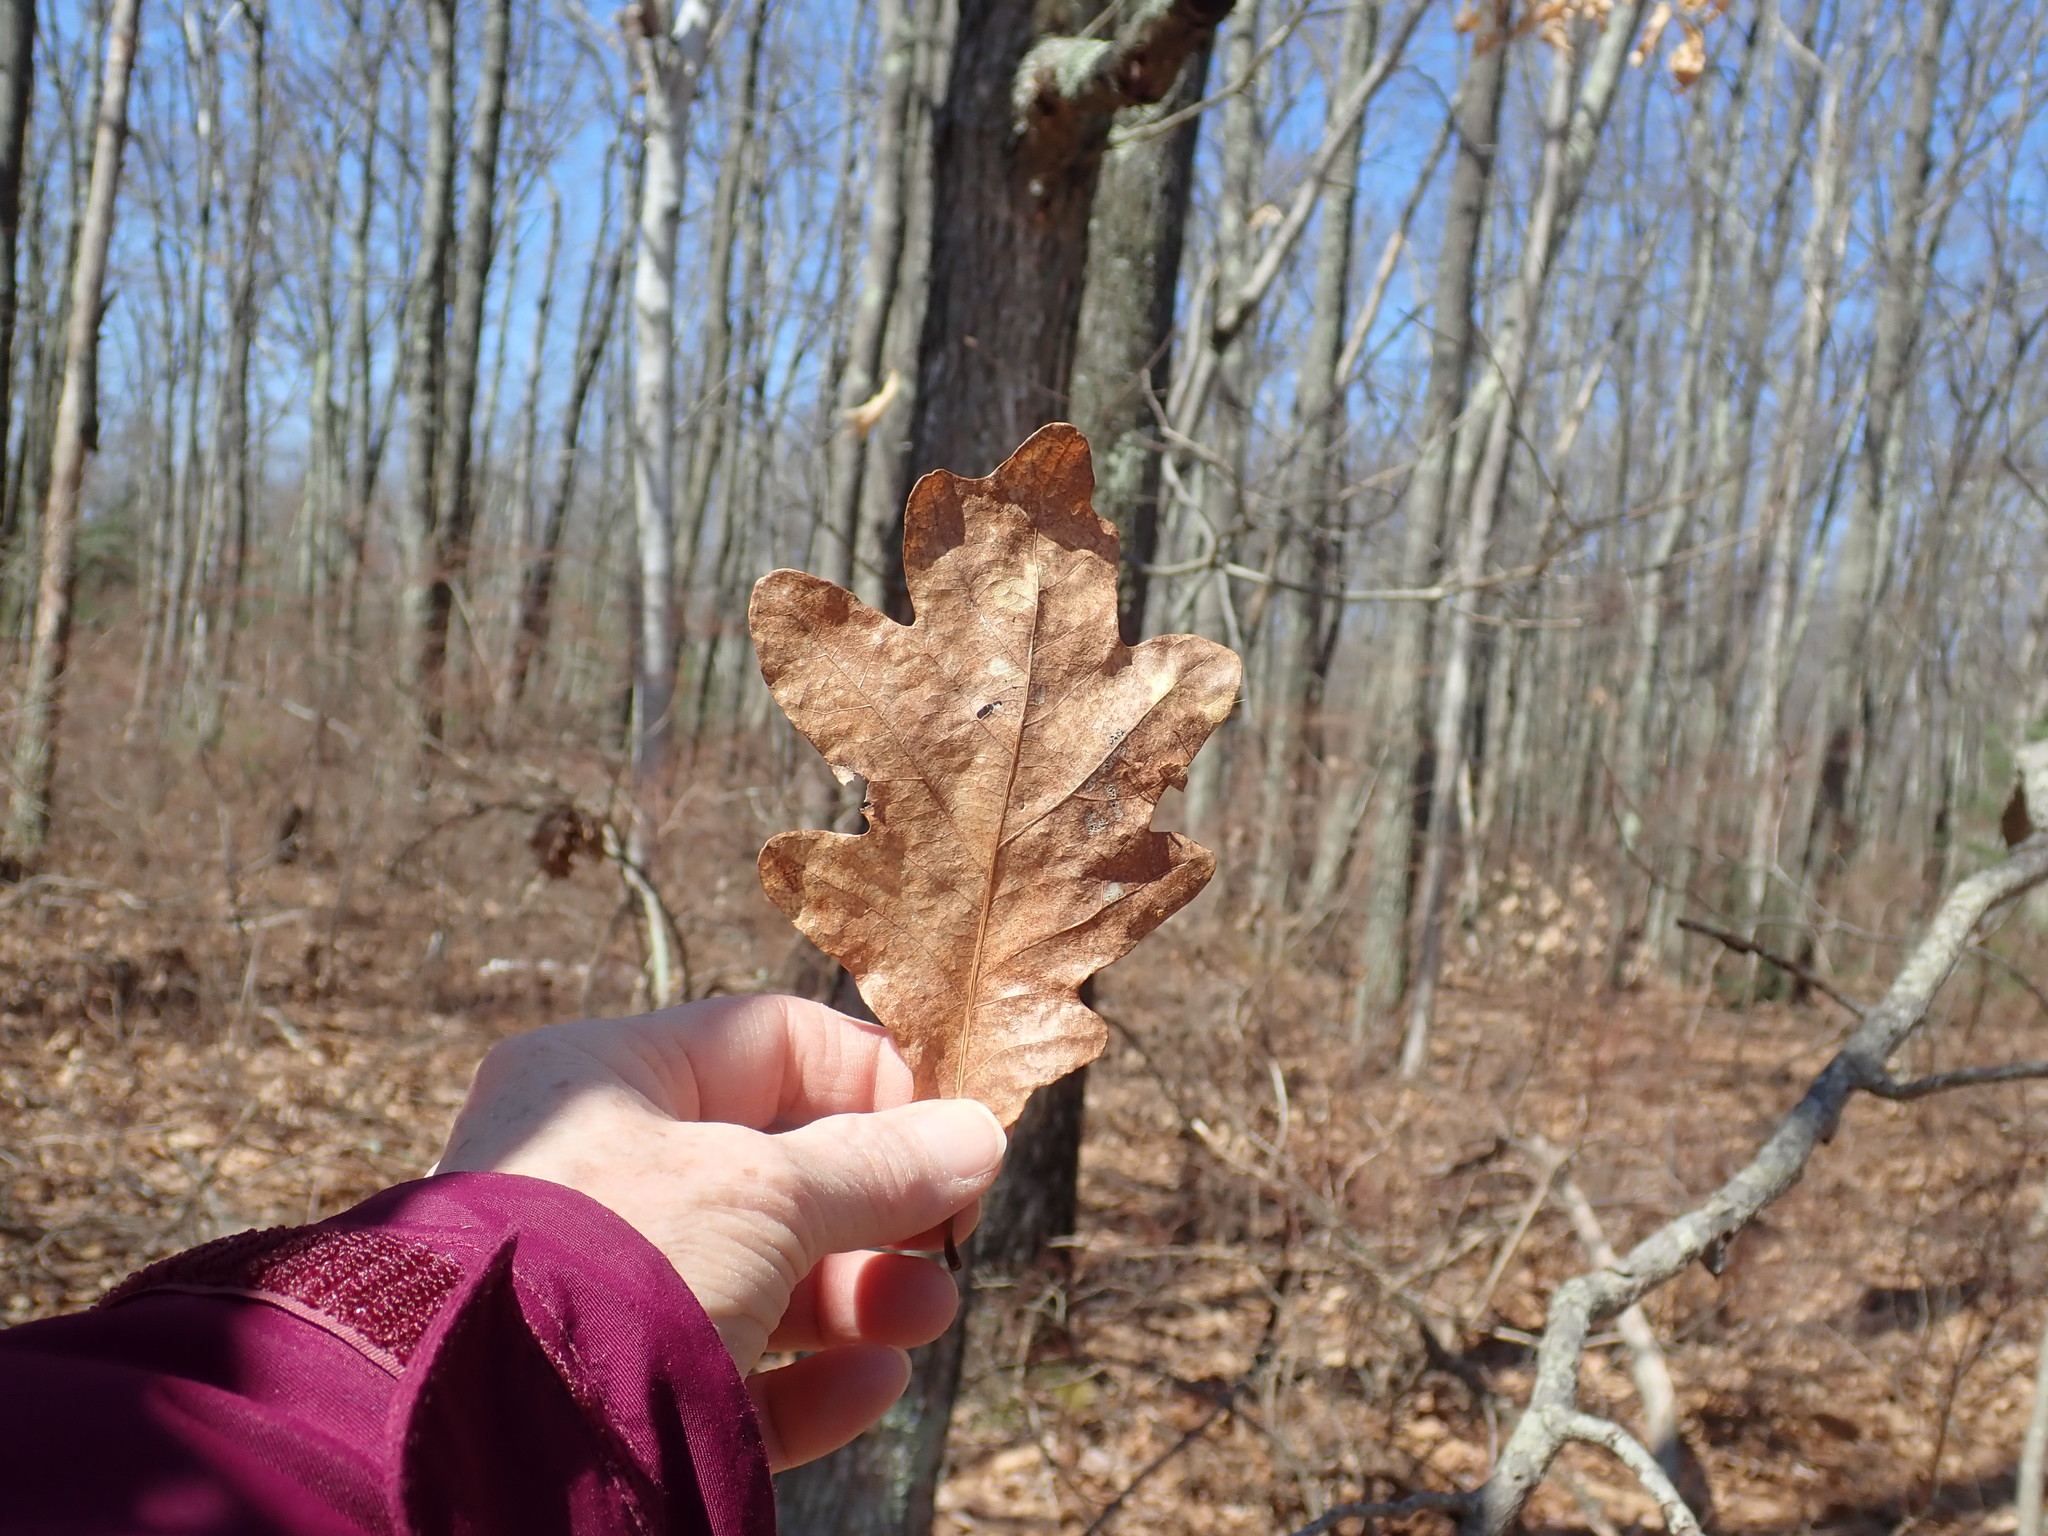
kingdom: Plantae
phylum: Tracheophyta
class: Magnoliopsida
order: Fagales
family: Fagaceae
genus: Quercus
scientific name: Quercus alba
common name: White oak
